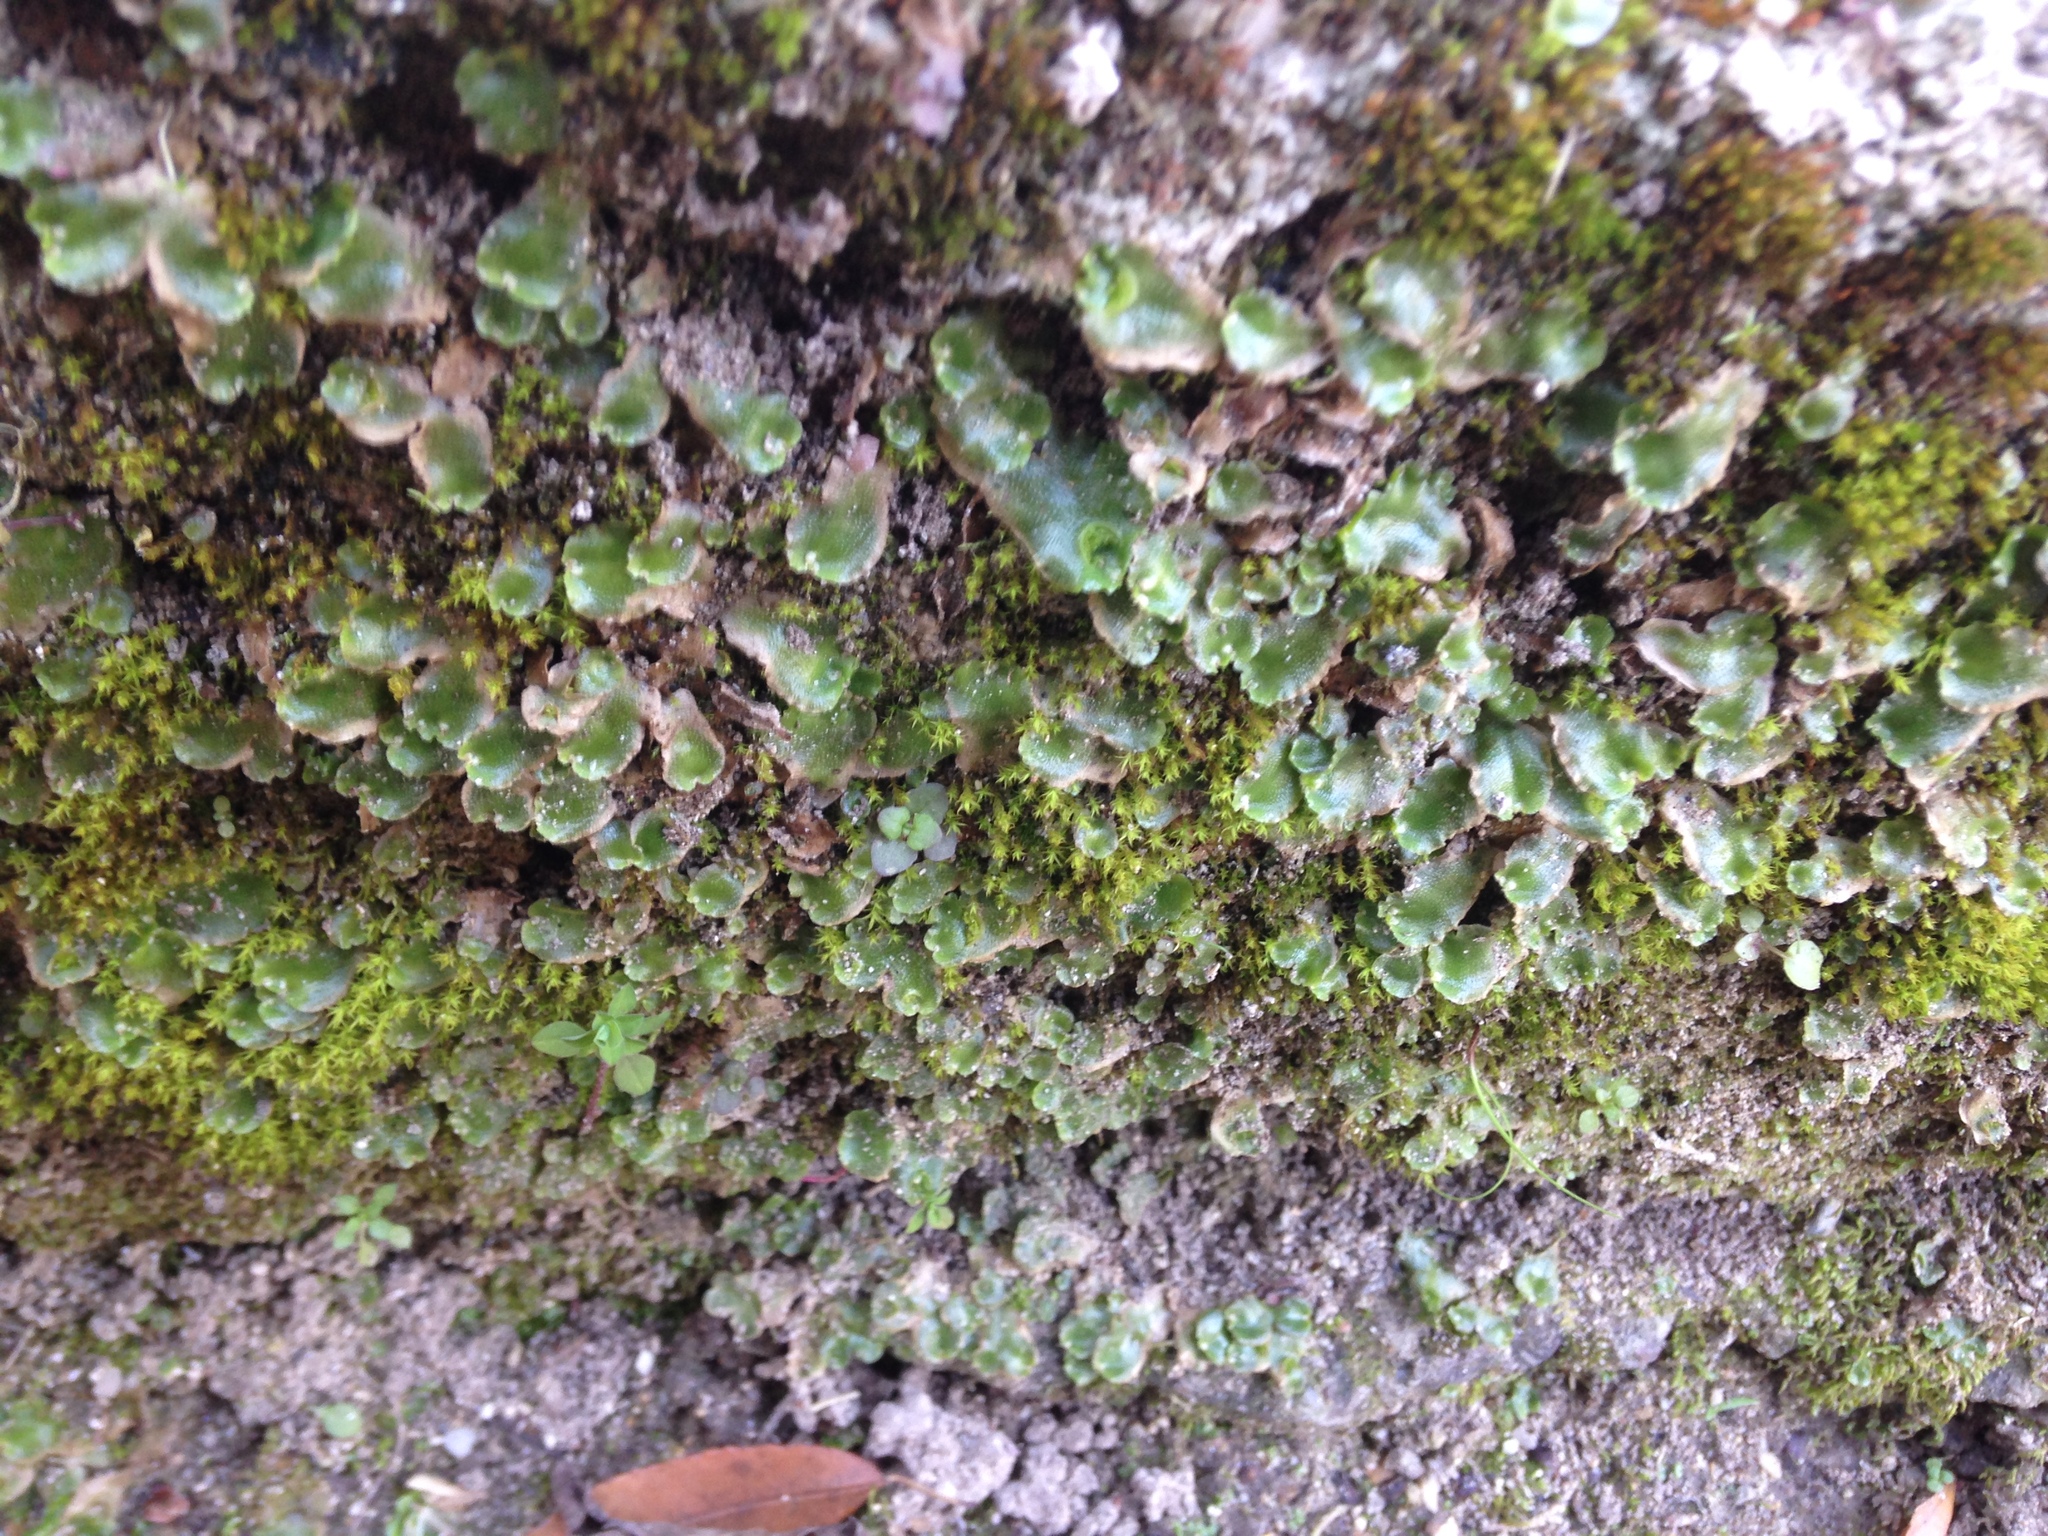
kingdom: Plantae
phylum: Marchantiophyta
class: Marchantiopsida
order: Lunulariales
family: Lunulariaceae
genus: Lunularia
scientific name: Lunularia cruciata
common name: Crescent-cup liverwort
